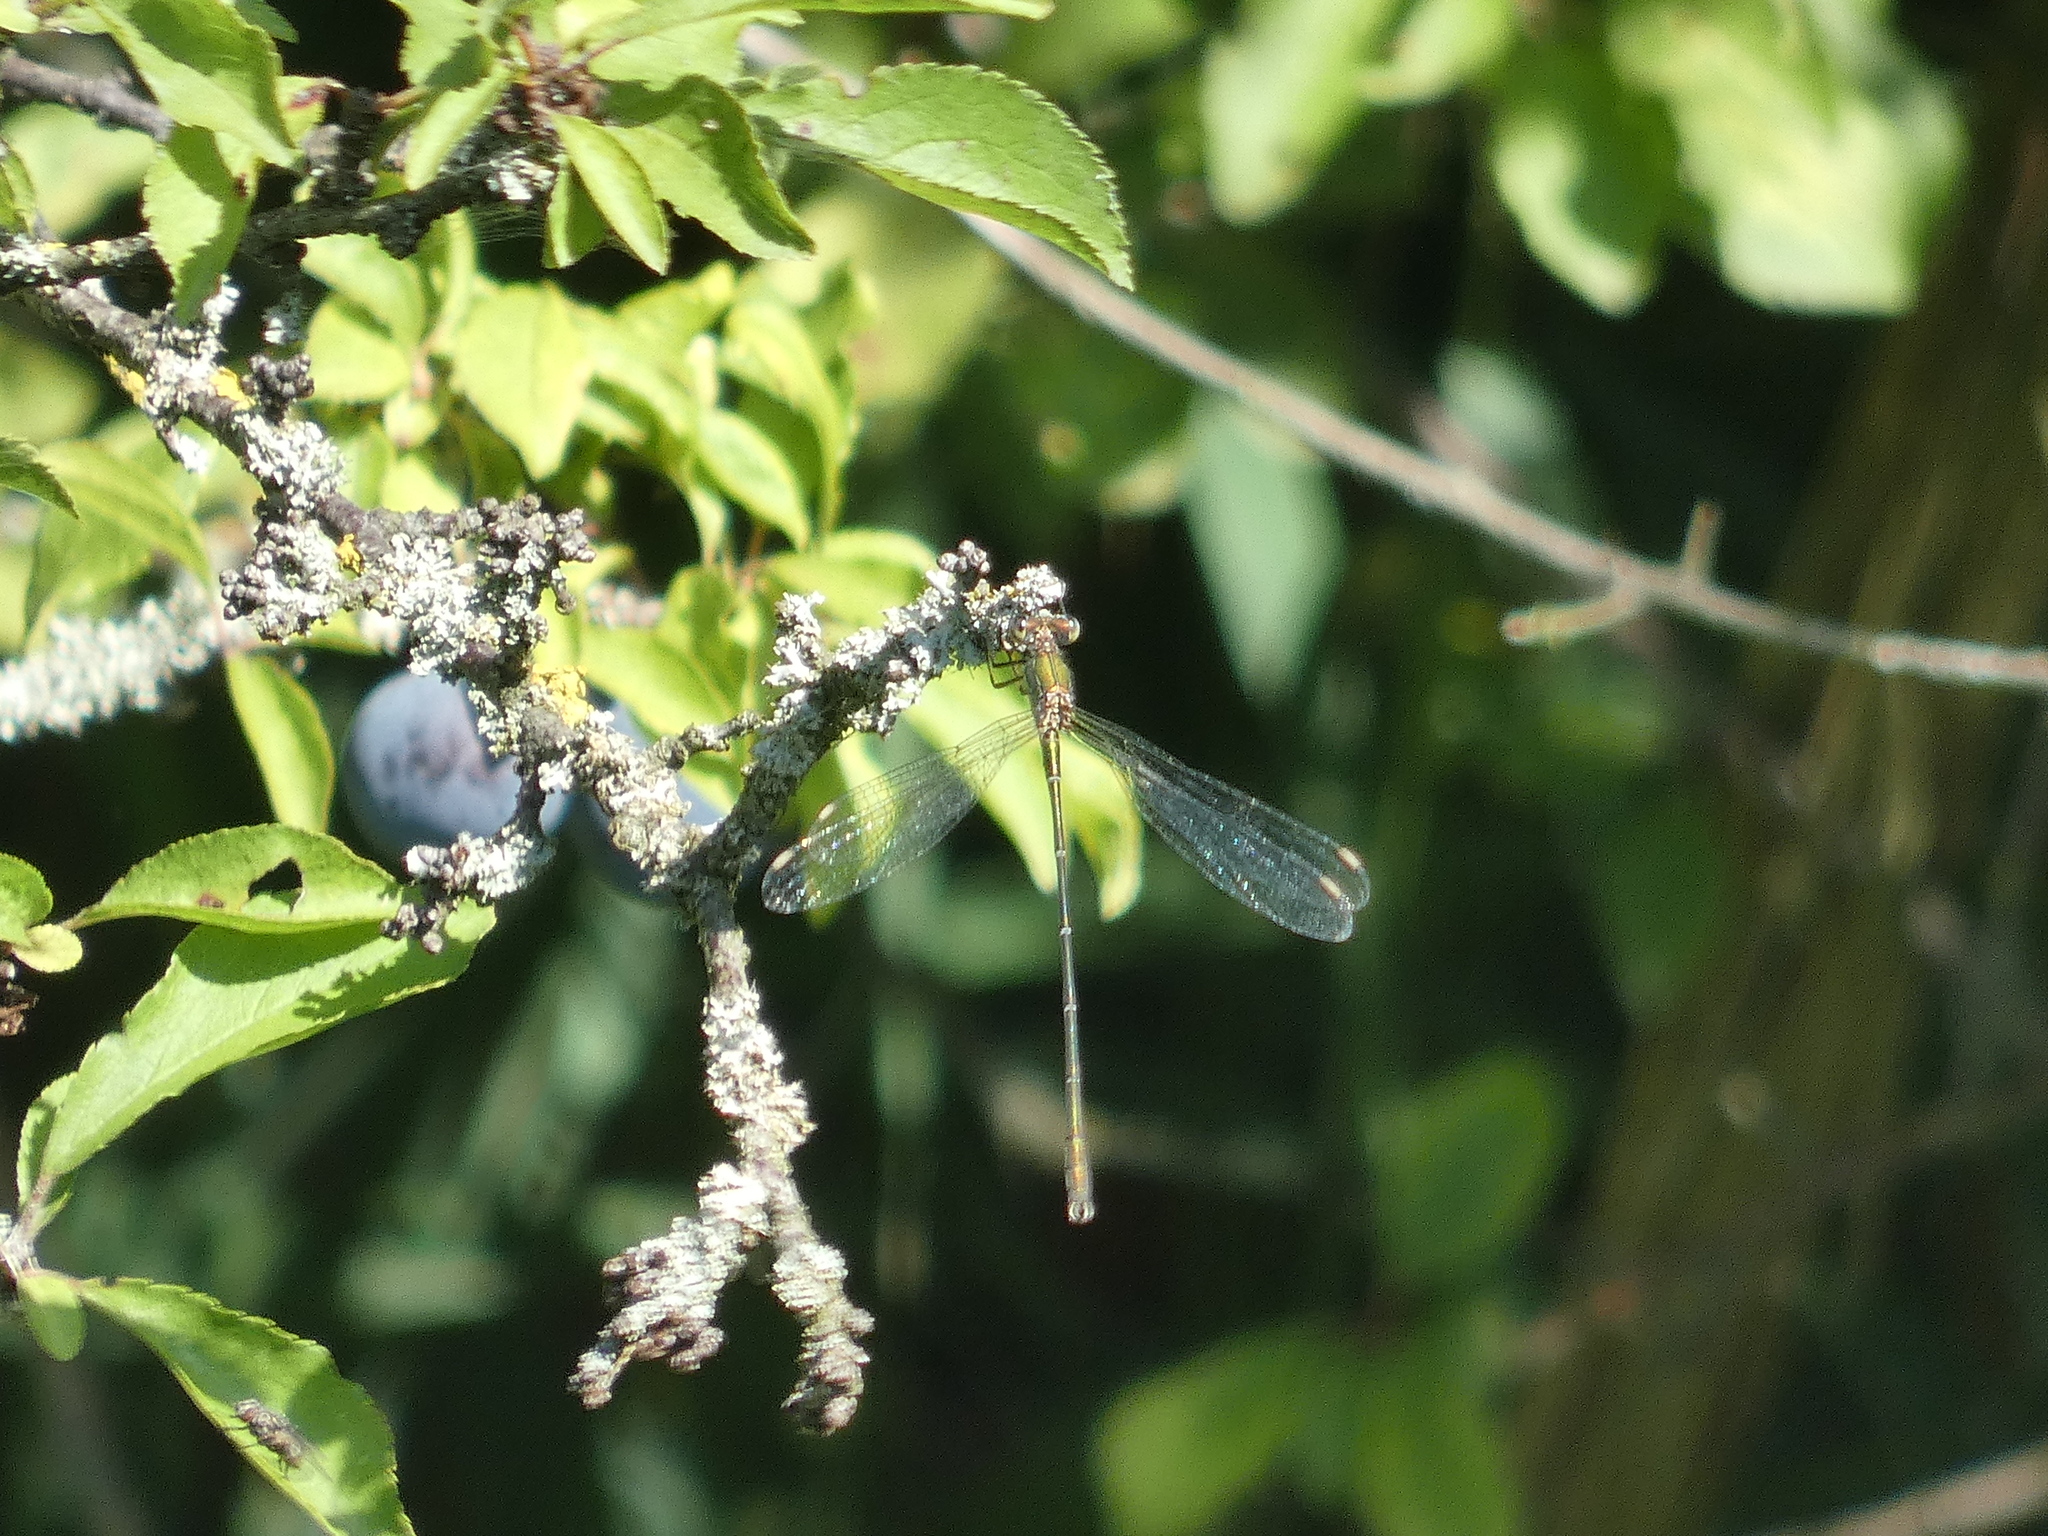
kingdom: Animalia
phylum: Arthropoda
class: Insecta
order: Odonata
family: Lestidae
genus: Chalcolestes
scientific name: Chalcolestes viridis
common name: Green emerald damselfly
